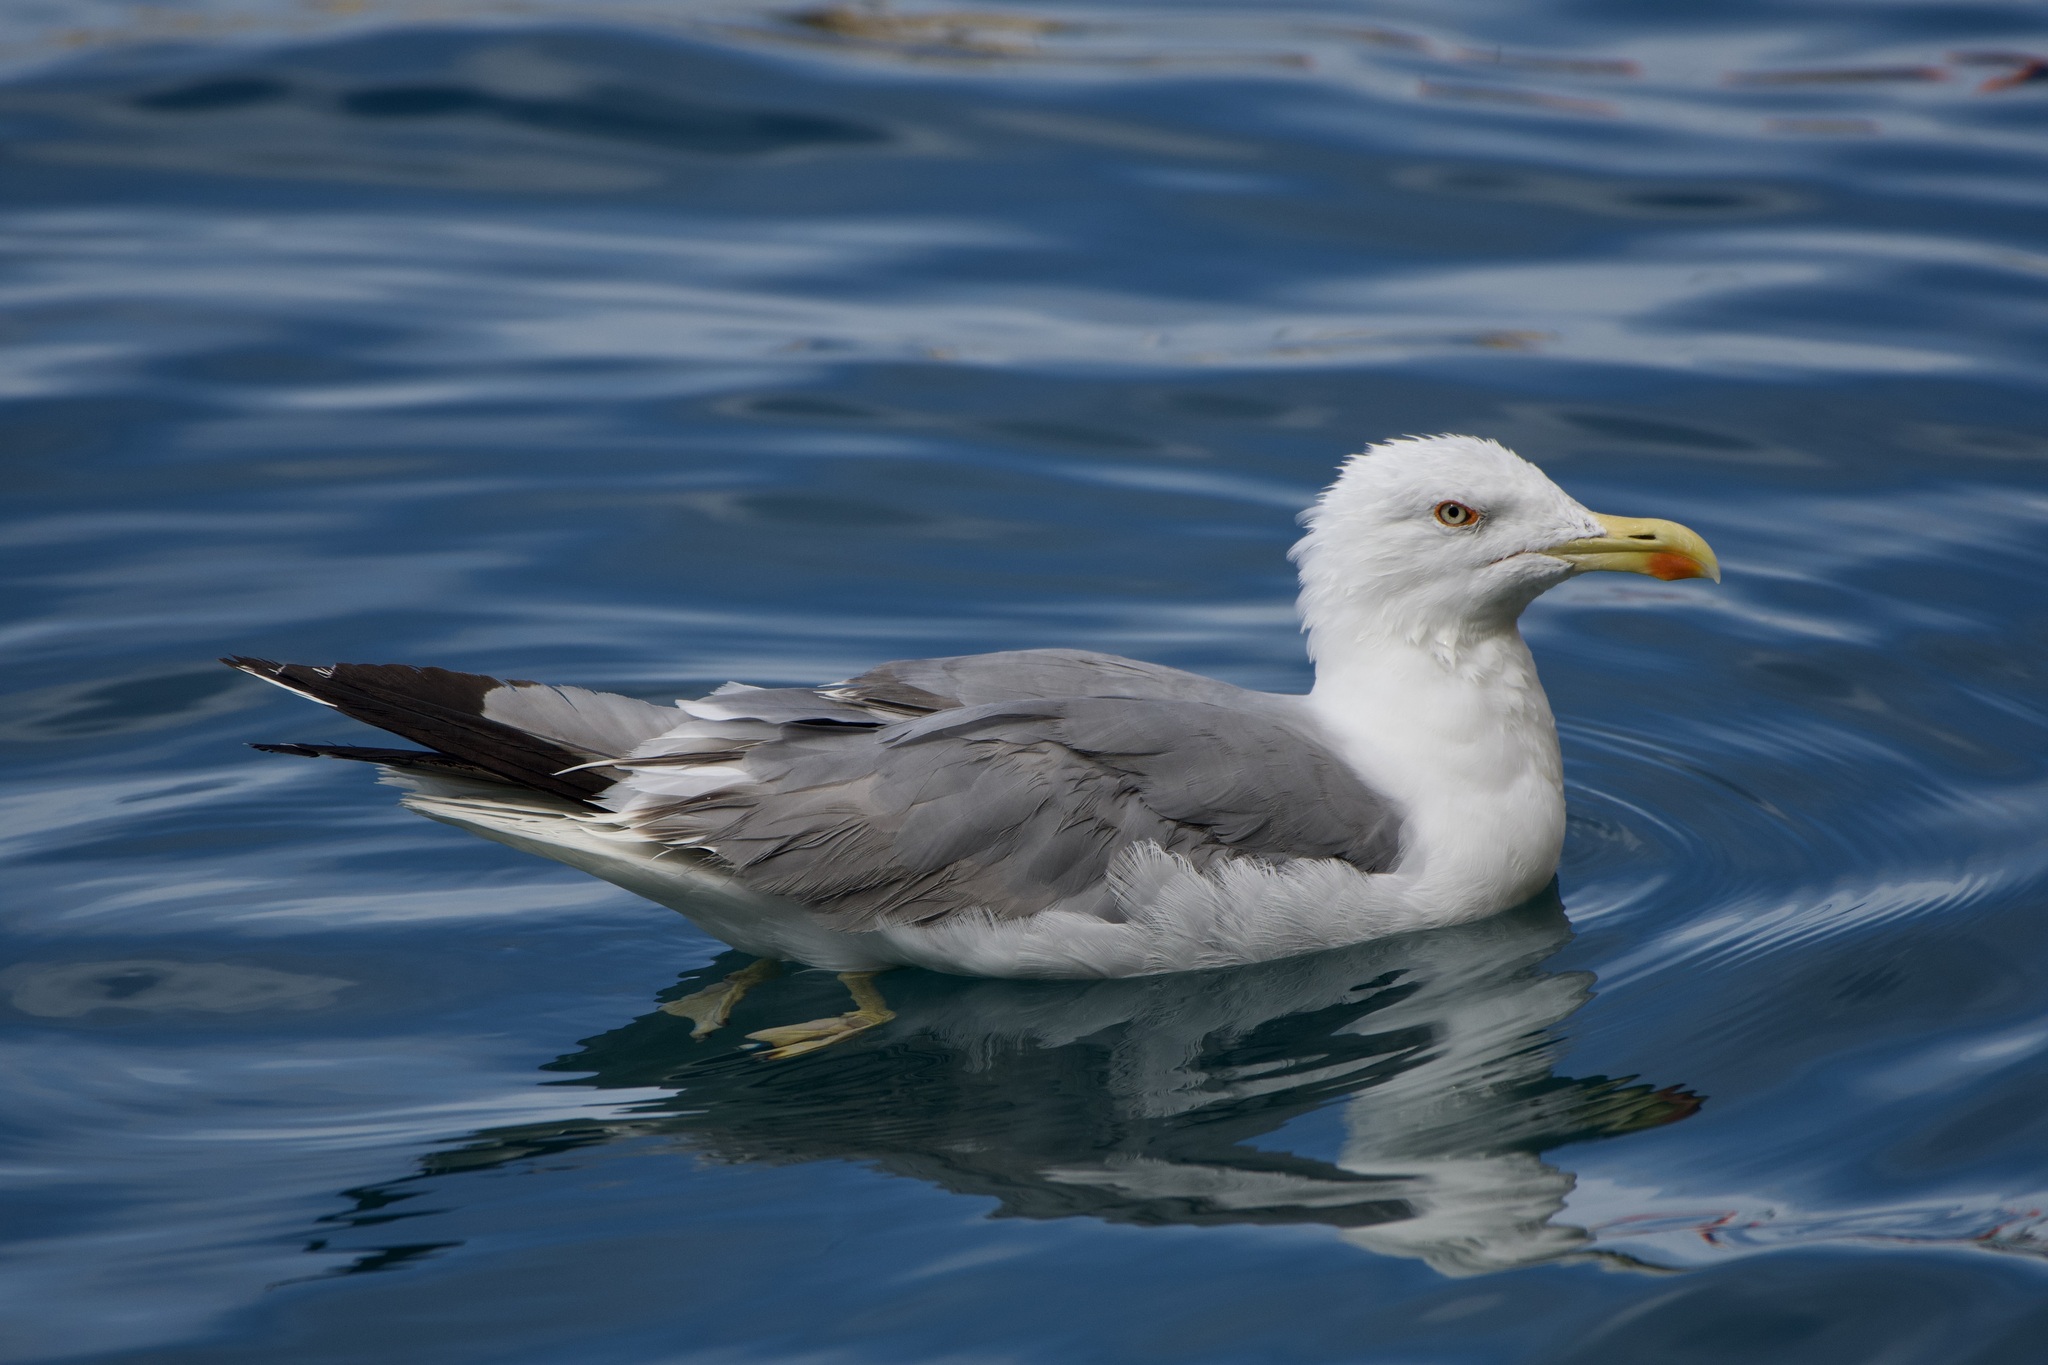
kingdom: Animalia
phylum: Chordata
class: Aves
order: Charadriiformes
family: Laridae
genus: Larus
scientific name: Larus michahellis
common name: Yellow-legged gull
